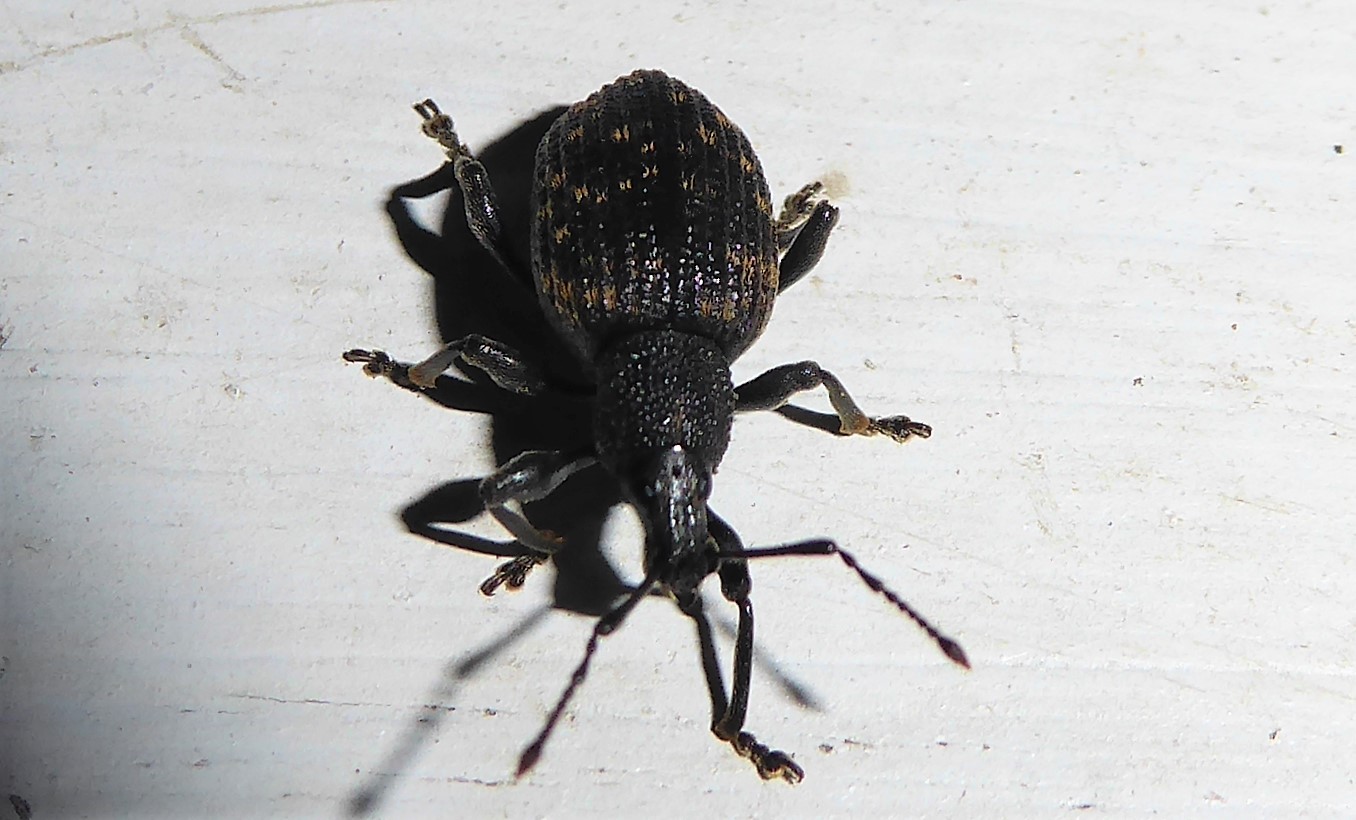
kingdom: Animalia
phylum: Arthropoda
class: Insecta
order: Coleoptera
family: Curculionidae
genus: Otiorhynchus
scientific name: Otiorhynchus sulcatus
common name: Black vine weevil
